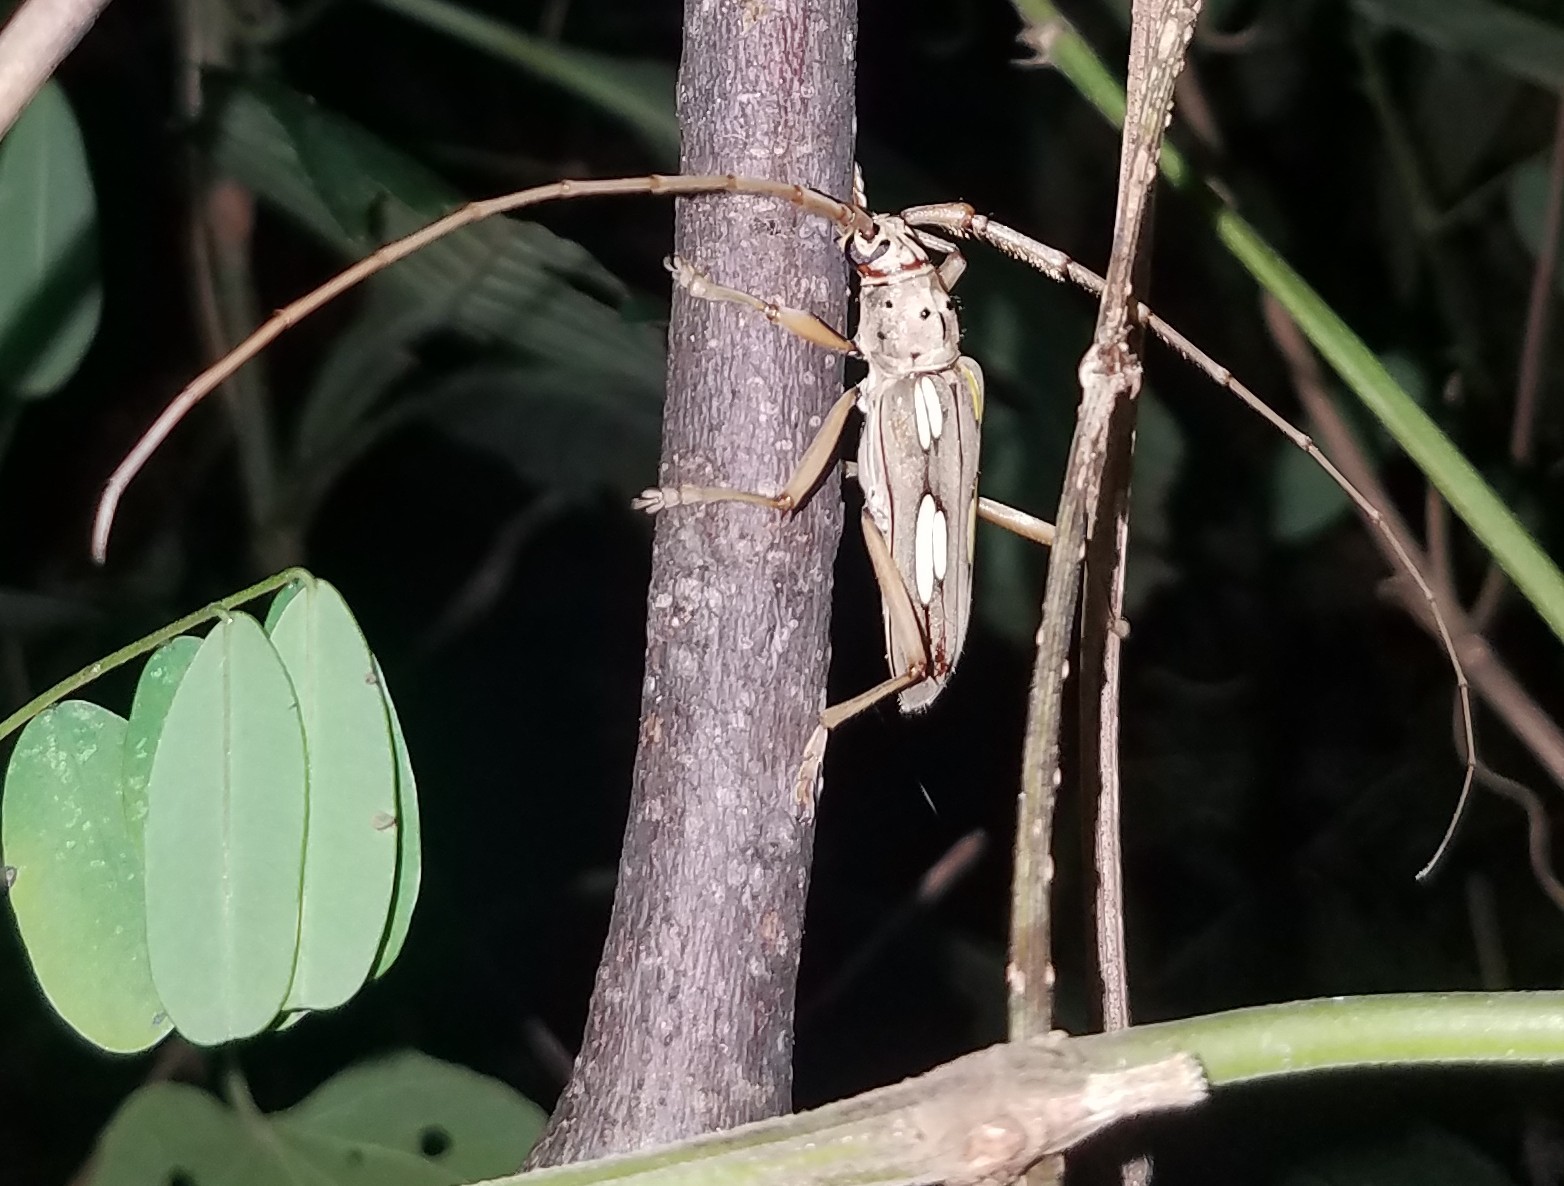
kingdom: Animalia
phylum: Arthropoda
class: Insecta
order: Coleoptera
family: Cerambycidae
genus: Eburia
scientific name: Eburia stigma
